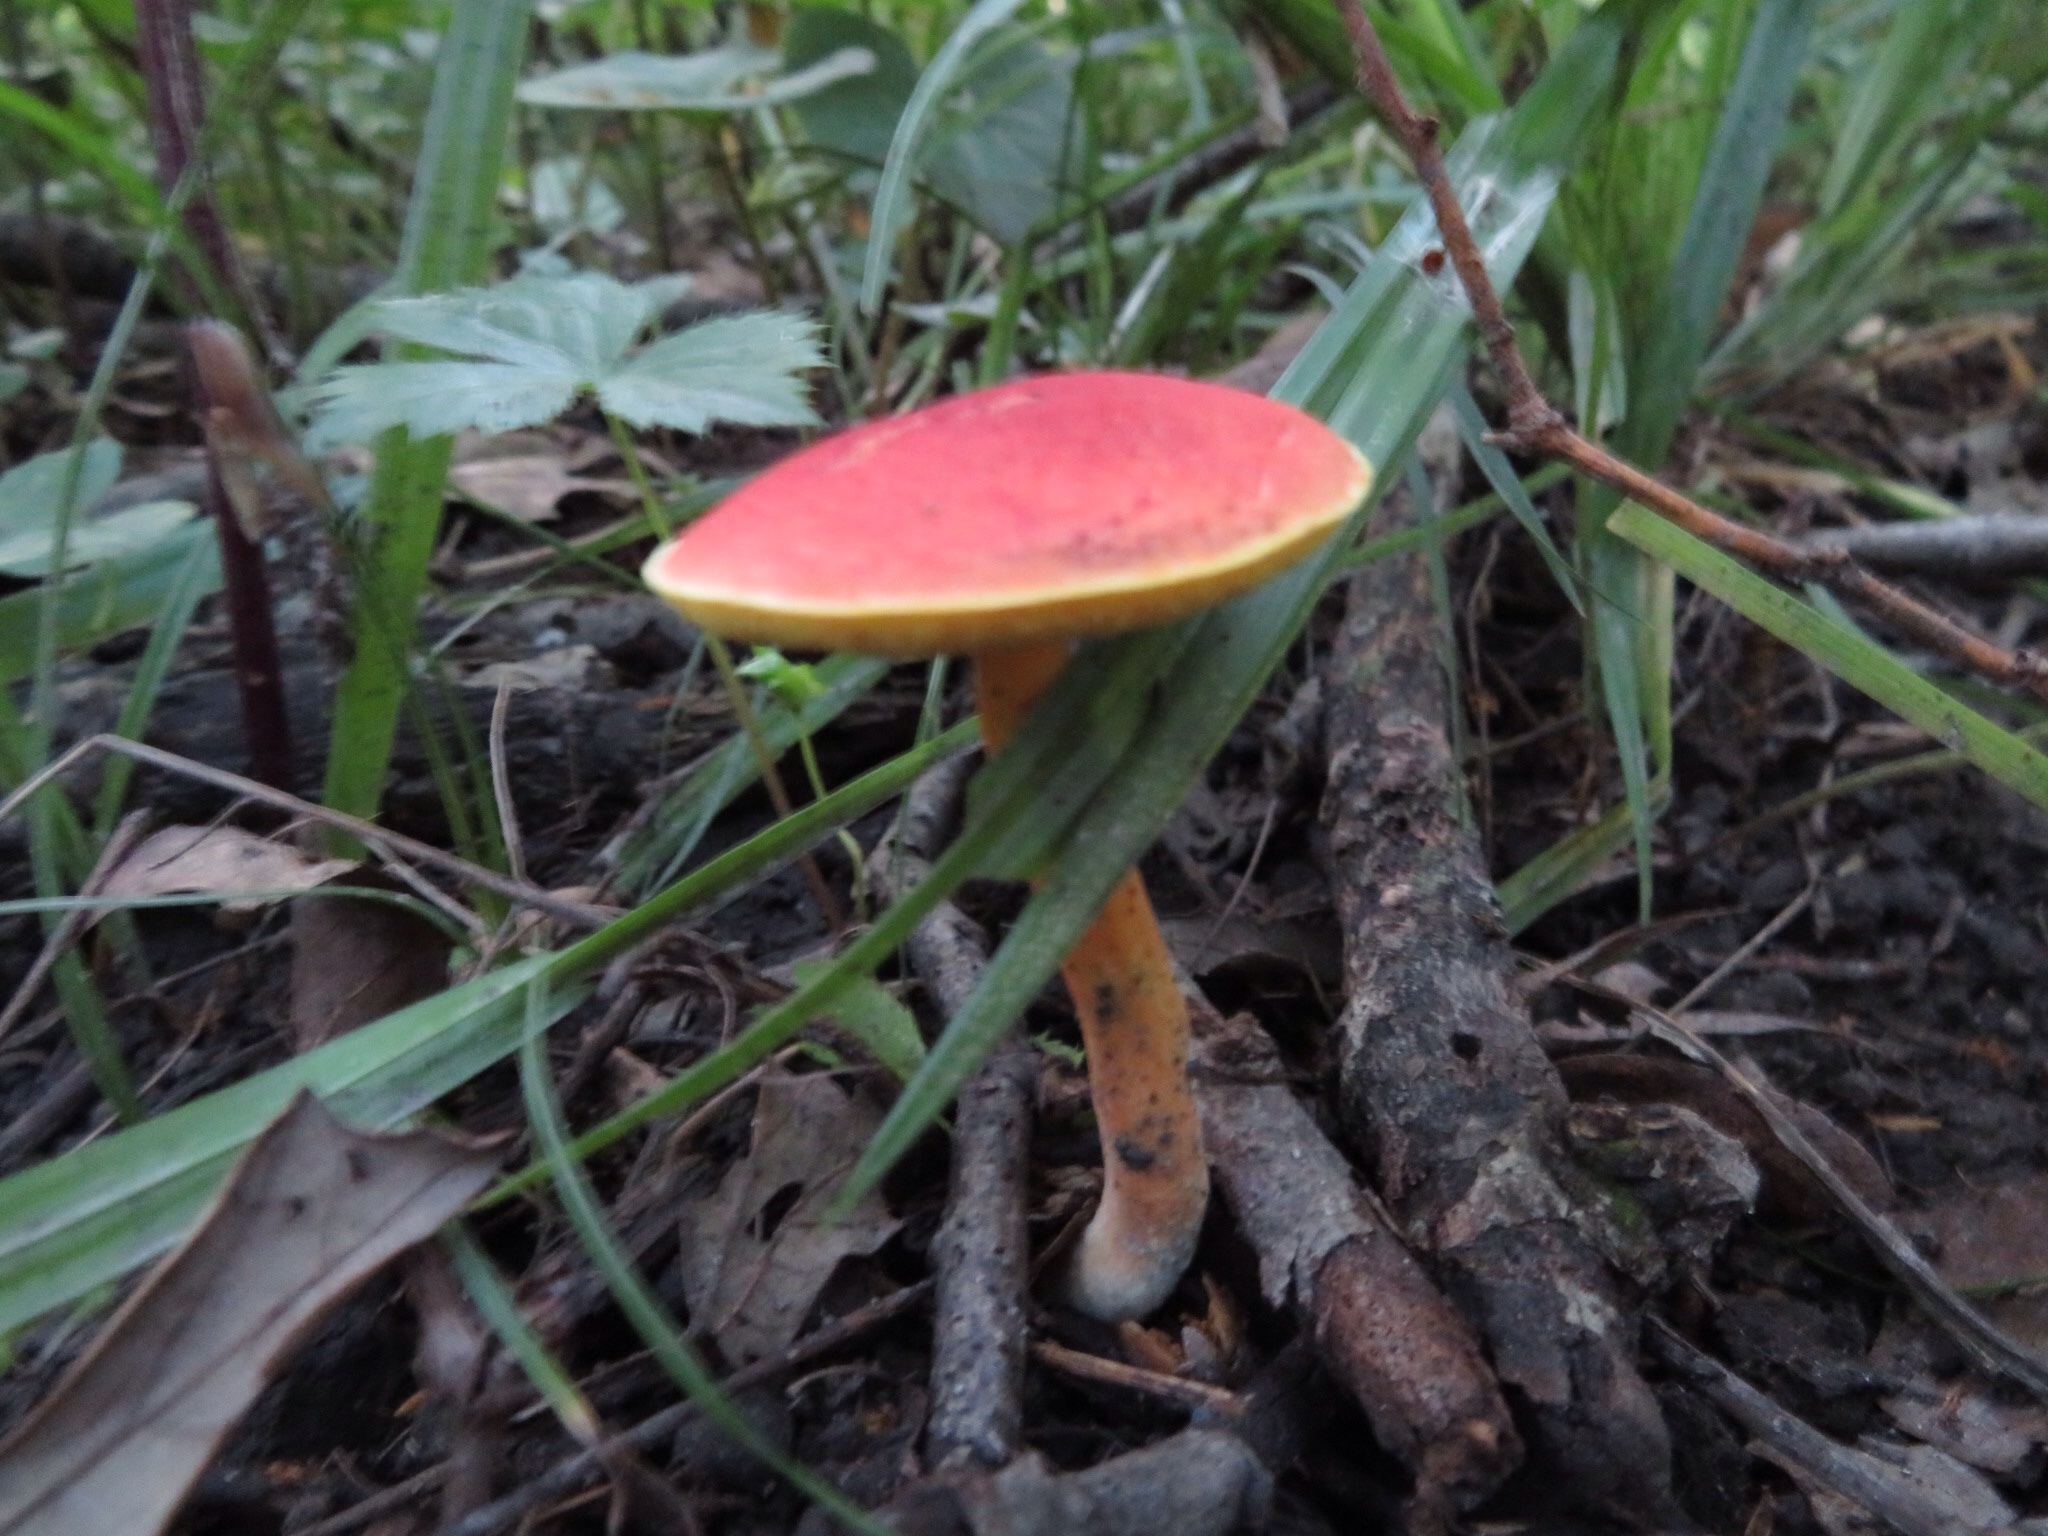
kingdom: Fungi
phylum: Basidiomycota
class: Agaricomycetes
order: Boletales
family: Boletaceae
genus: Hortiboletus
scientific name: Hortiboletus rubellus
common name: Ruby bolete
